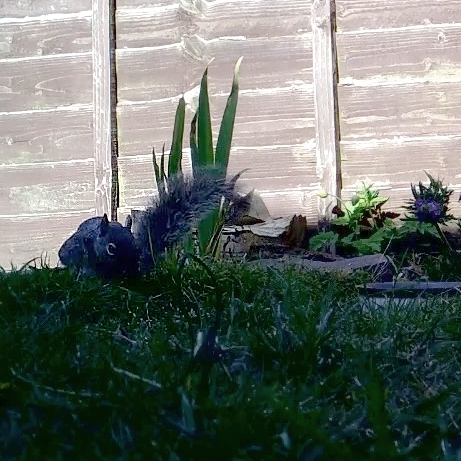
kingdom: Animalia
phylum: Chordata
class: Mammalia
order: Rodentia
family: Sciuridae
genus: Sciurus
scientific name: Sciurus carolinensis
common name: Eastern gray squirrel
